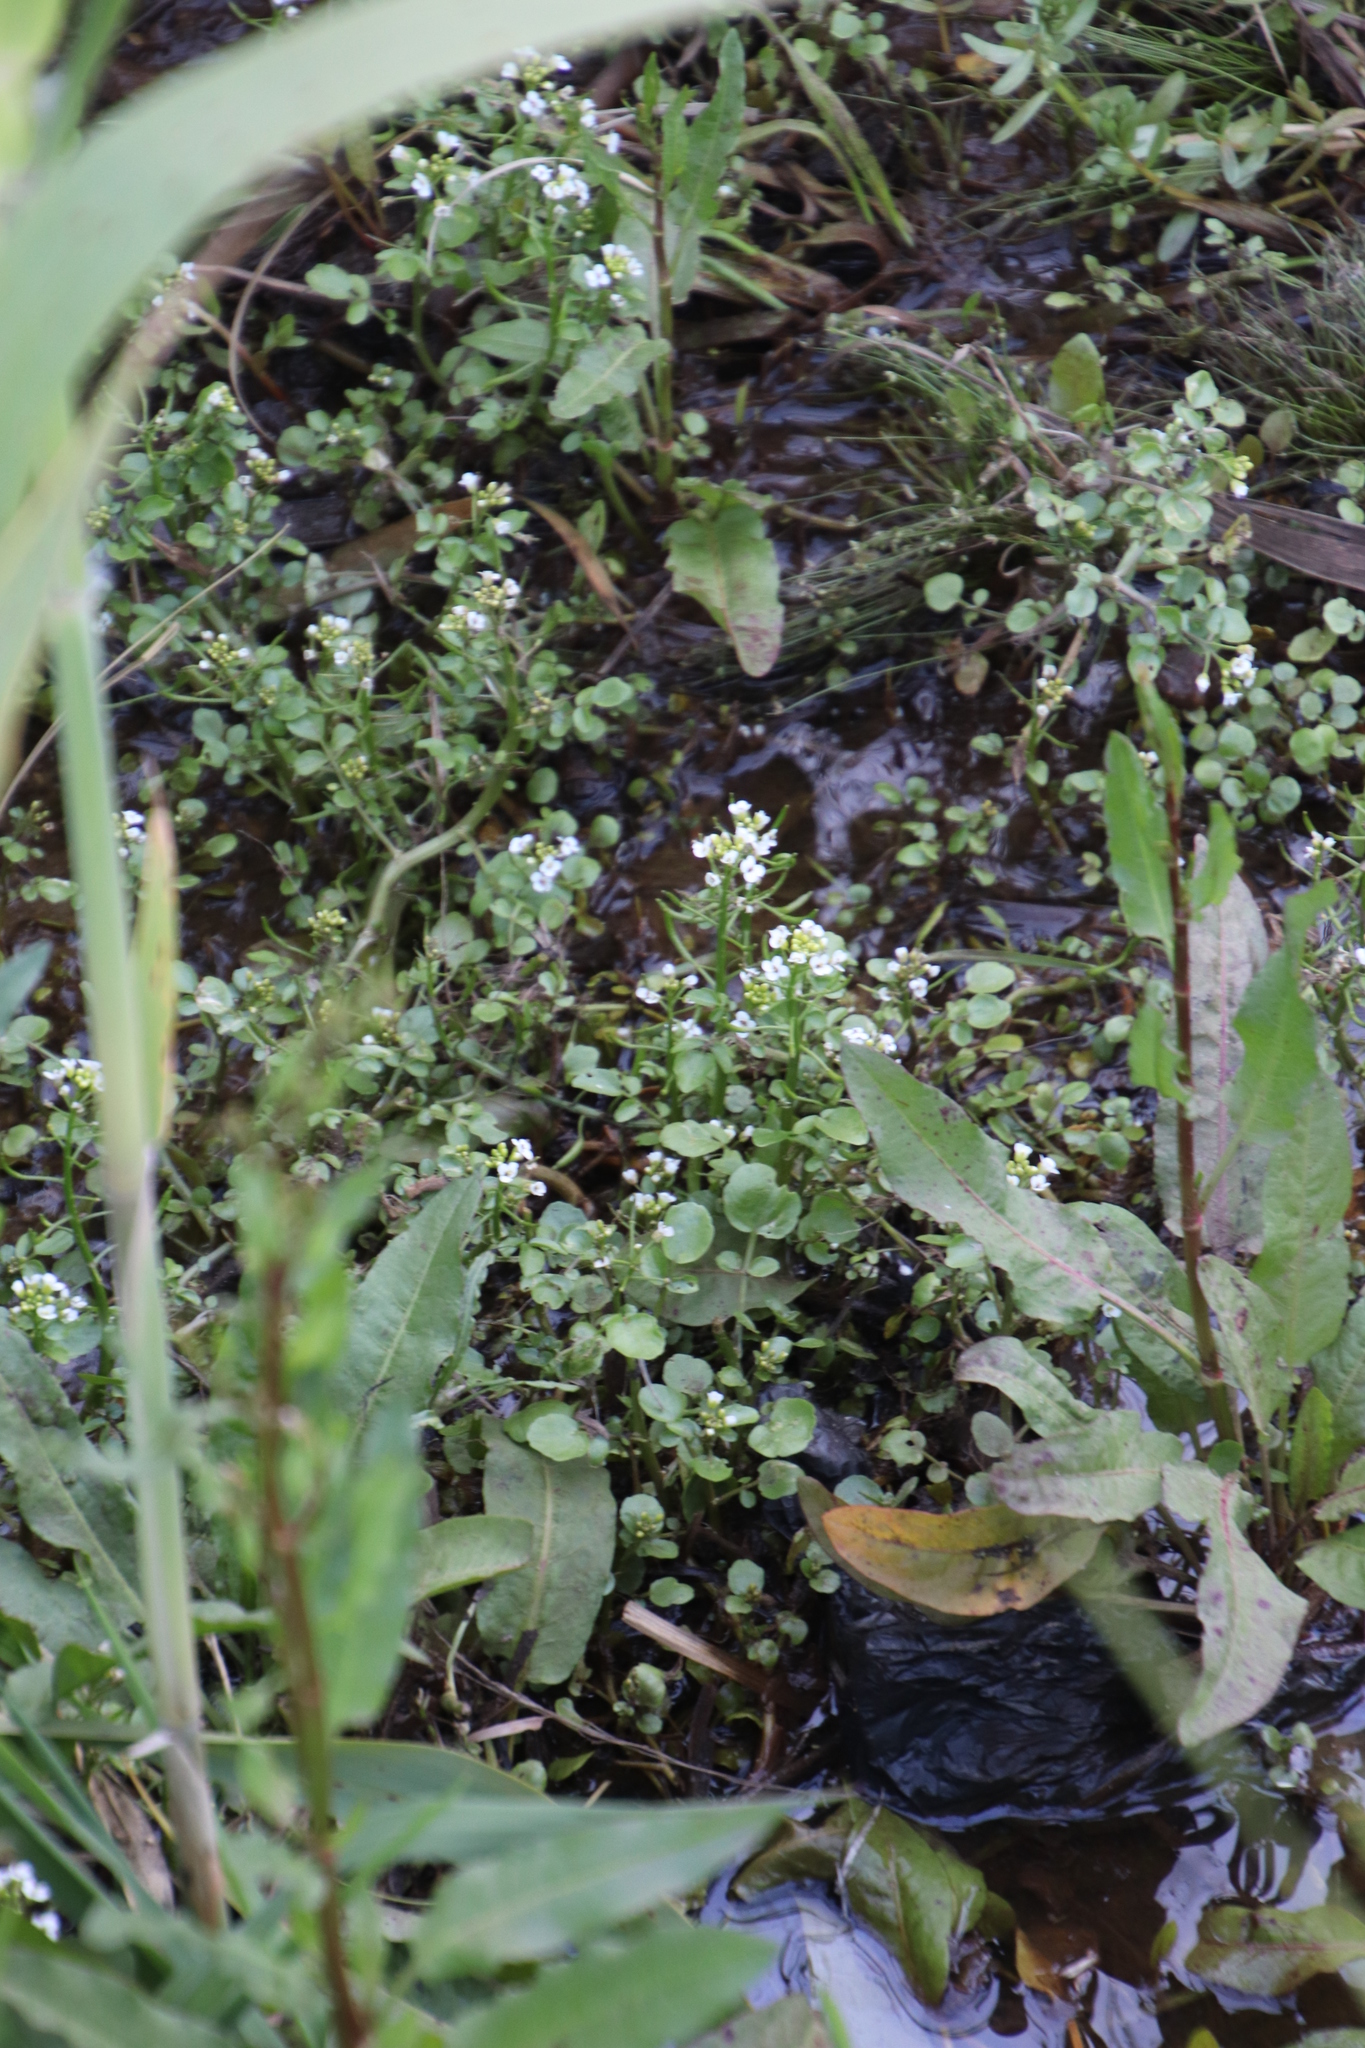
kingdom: Plantae
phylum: Tracheophyta
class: Magnoliopsida
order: Brassicales
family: Brassicaceae
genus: Nasturtium
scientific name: Nasturtium officinale
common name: Watercress
